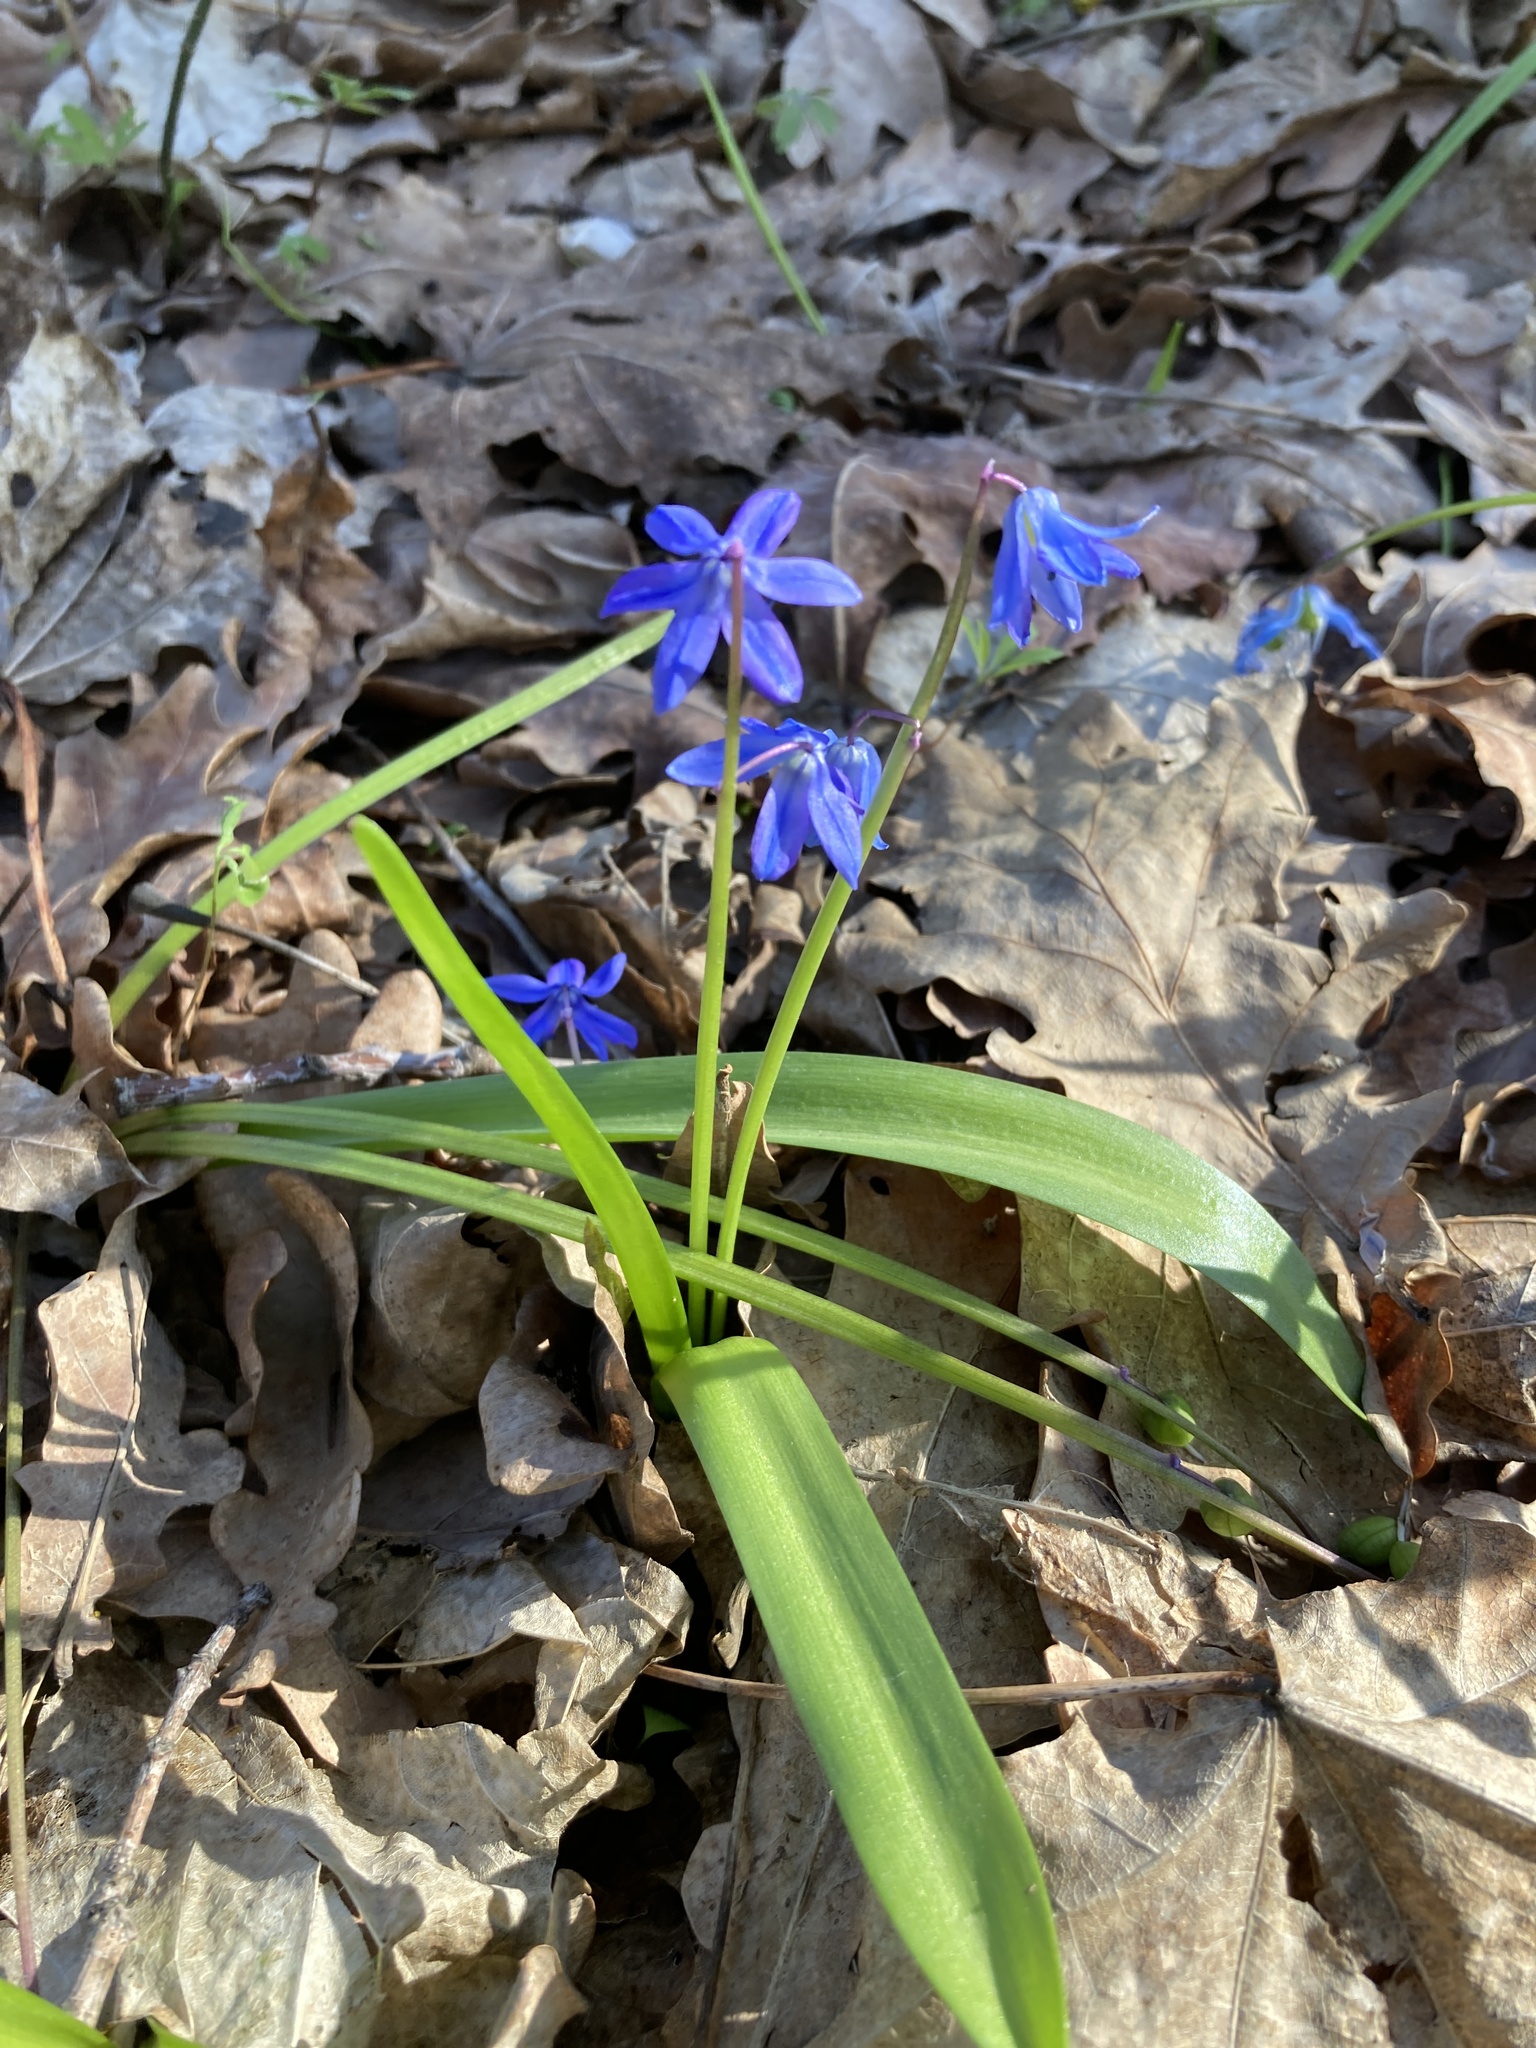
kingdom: Plantae
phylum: Tracheophyta
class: Liliopsida
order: Asparagales
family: Asparagaceae
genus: Scilla
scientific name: Scilla siberica
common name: Siberian squill
